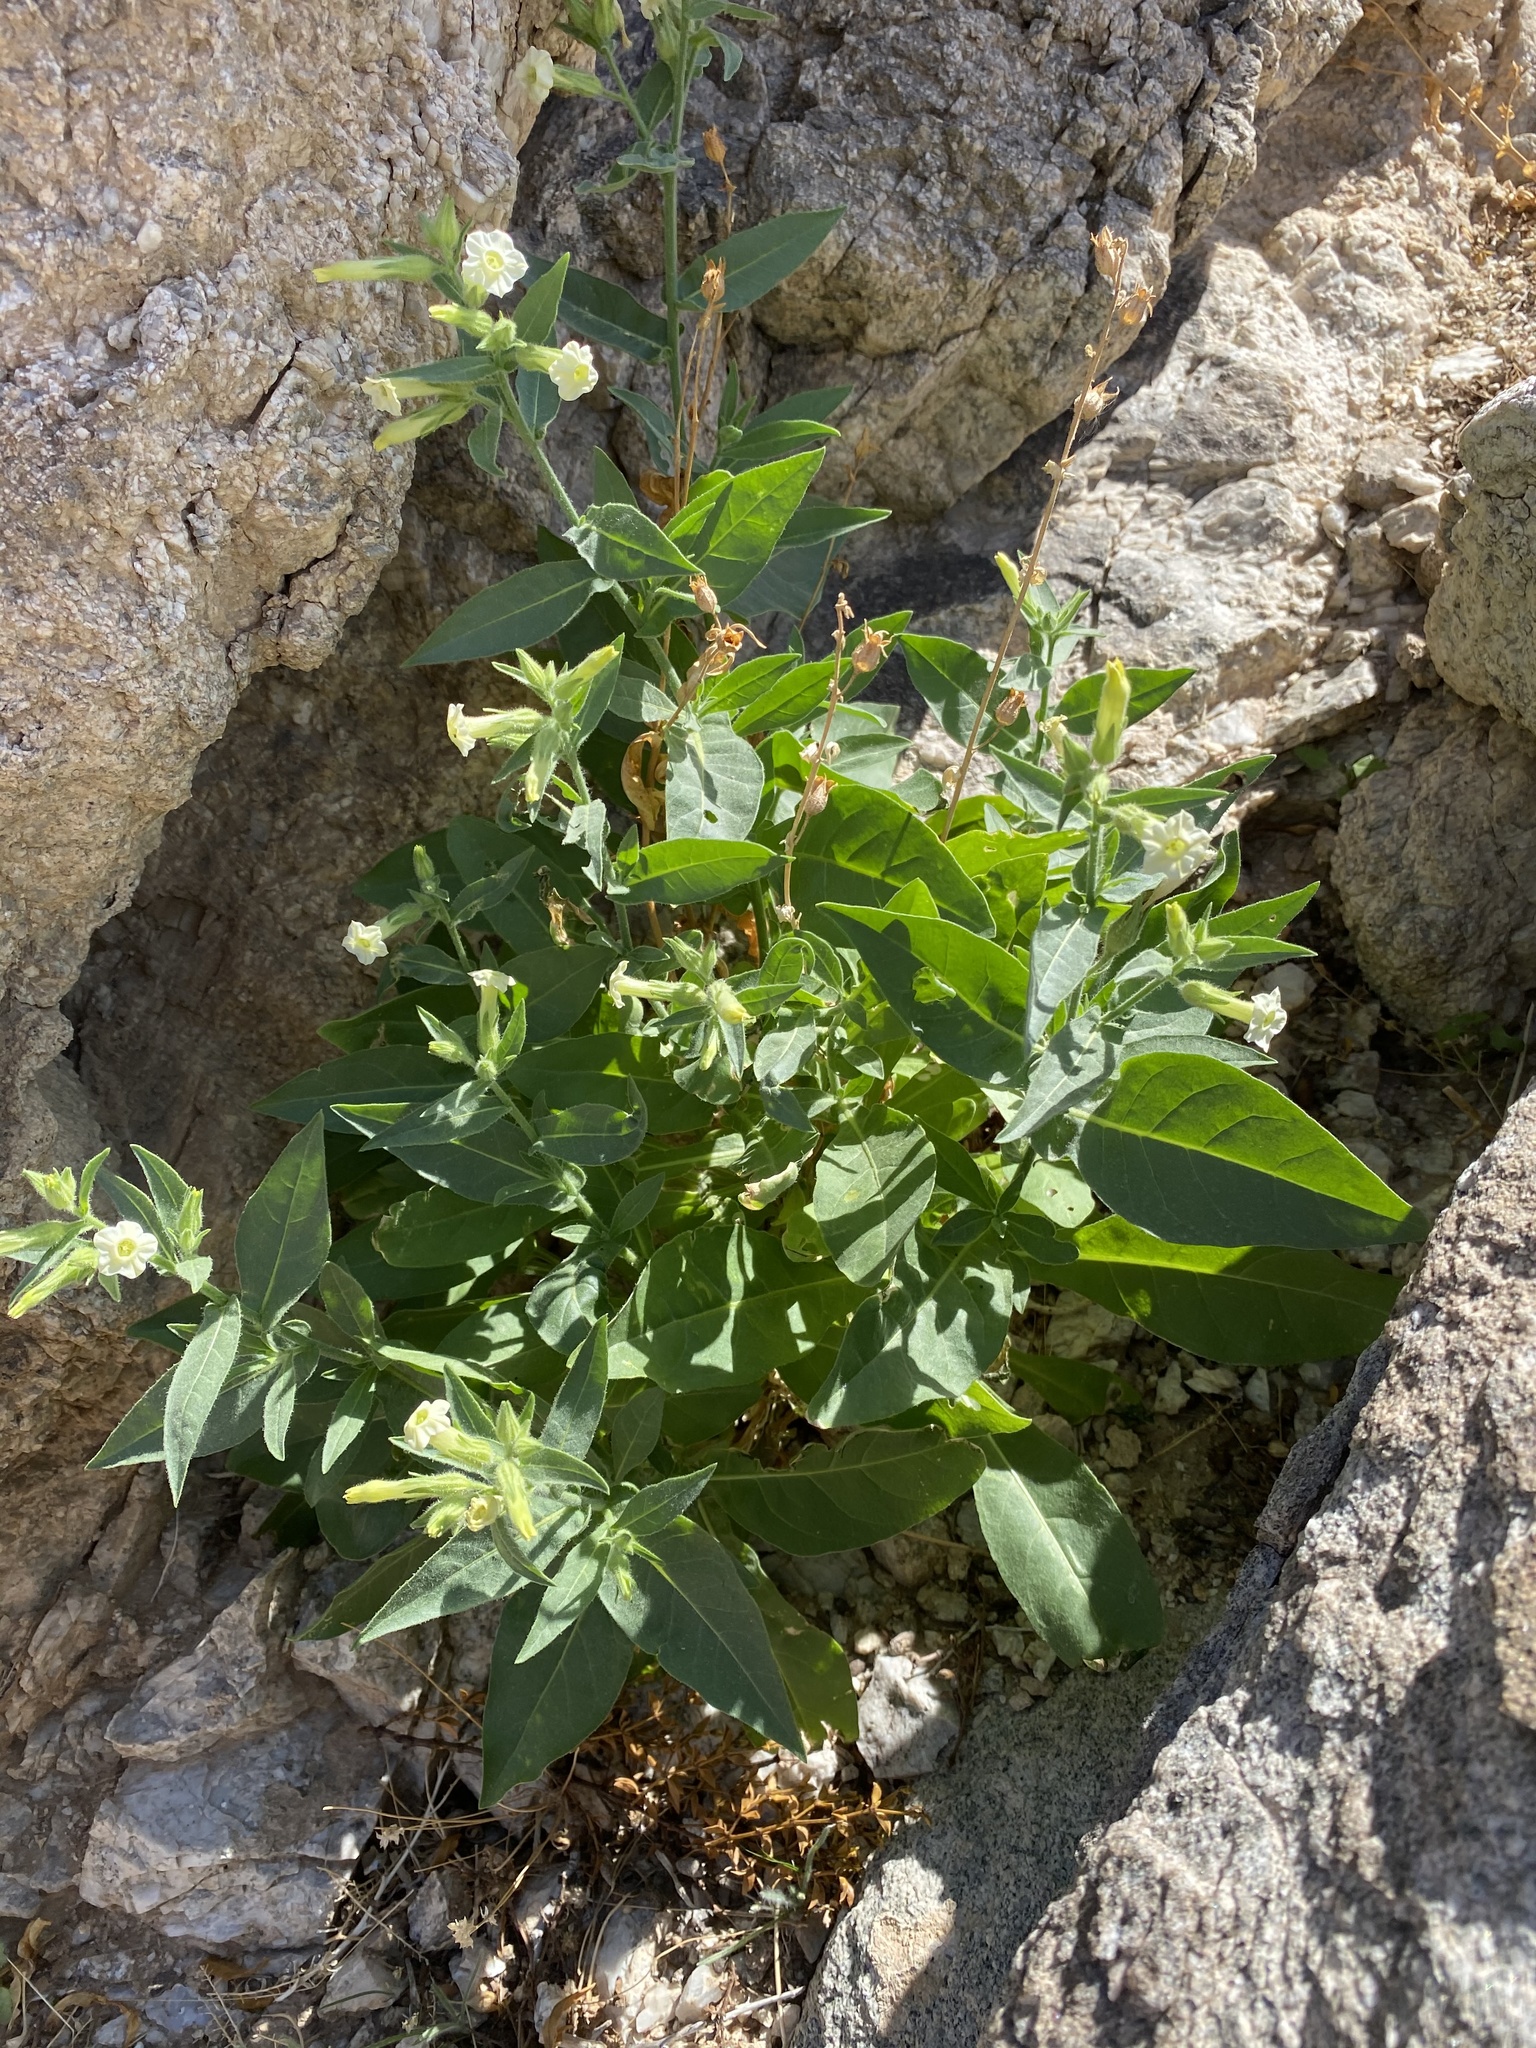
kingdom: Plantae
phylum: Tracheophyta
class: Magnoliopsida
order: Solanales
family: Solanaceae
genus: Nicotiana
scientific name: Nicotiana obtusifolia
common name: Desert tobacco
